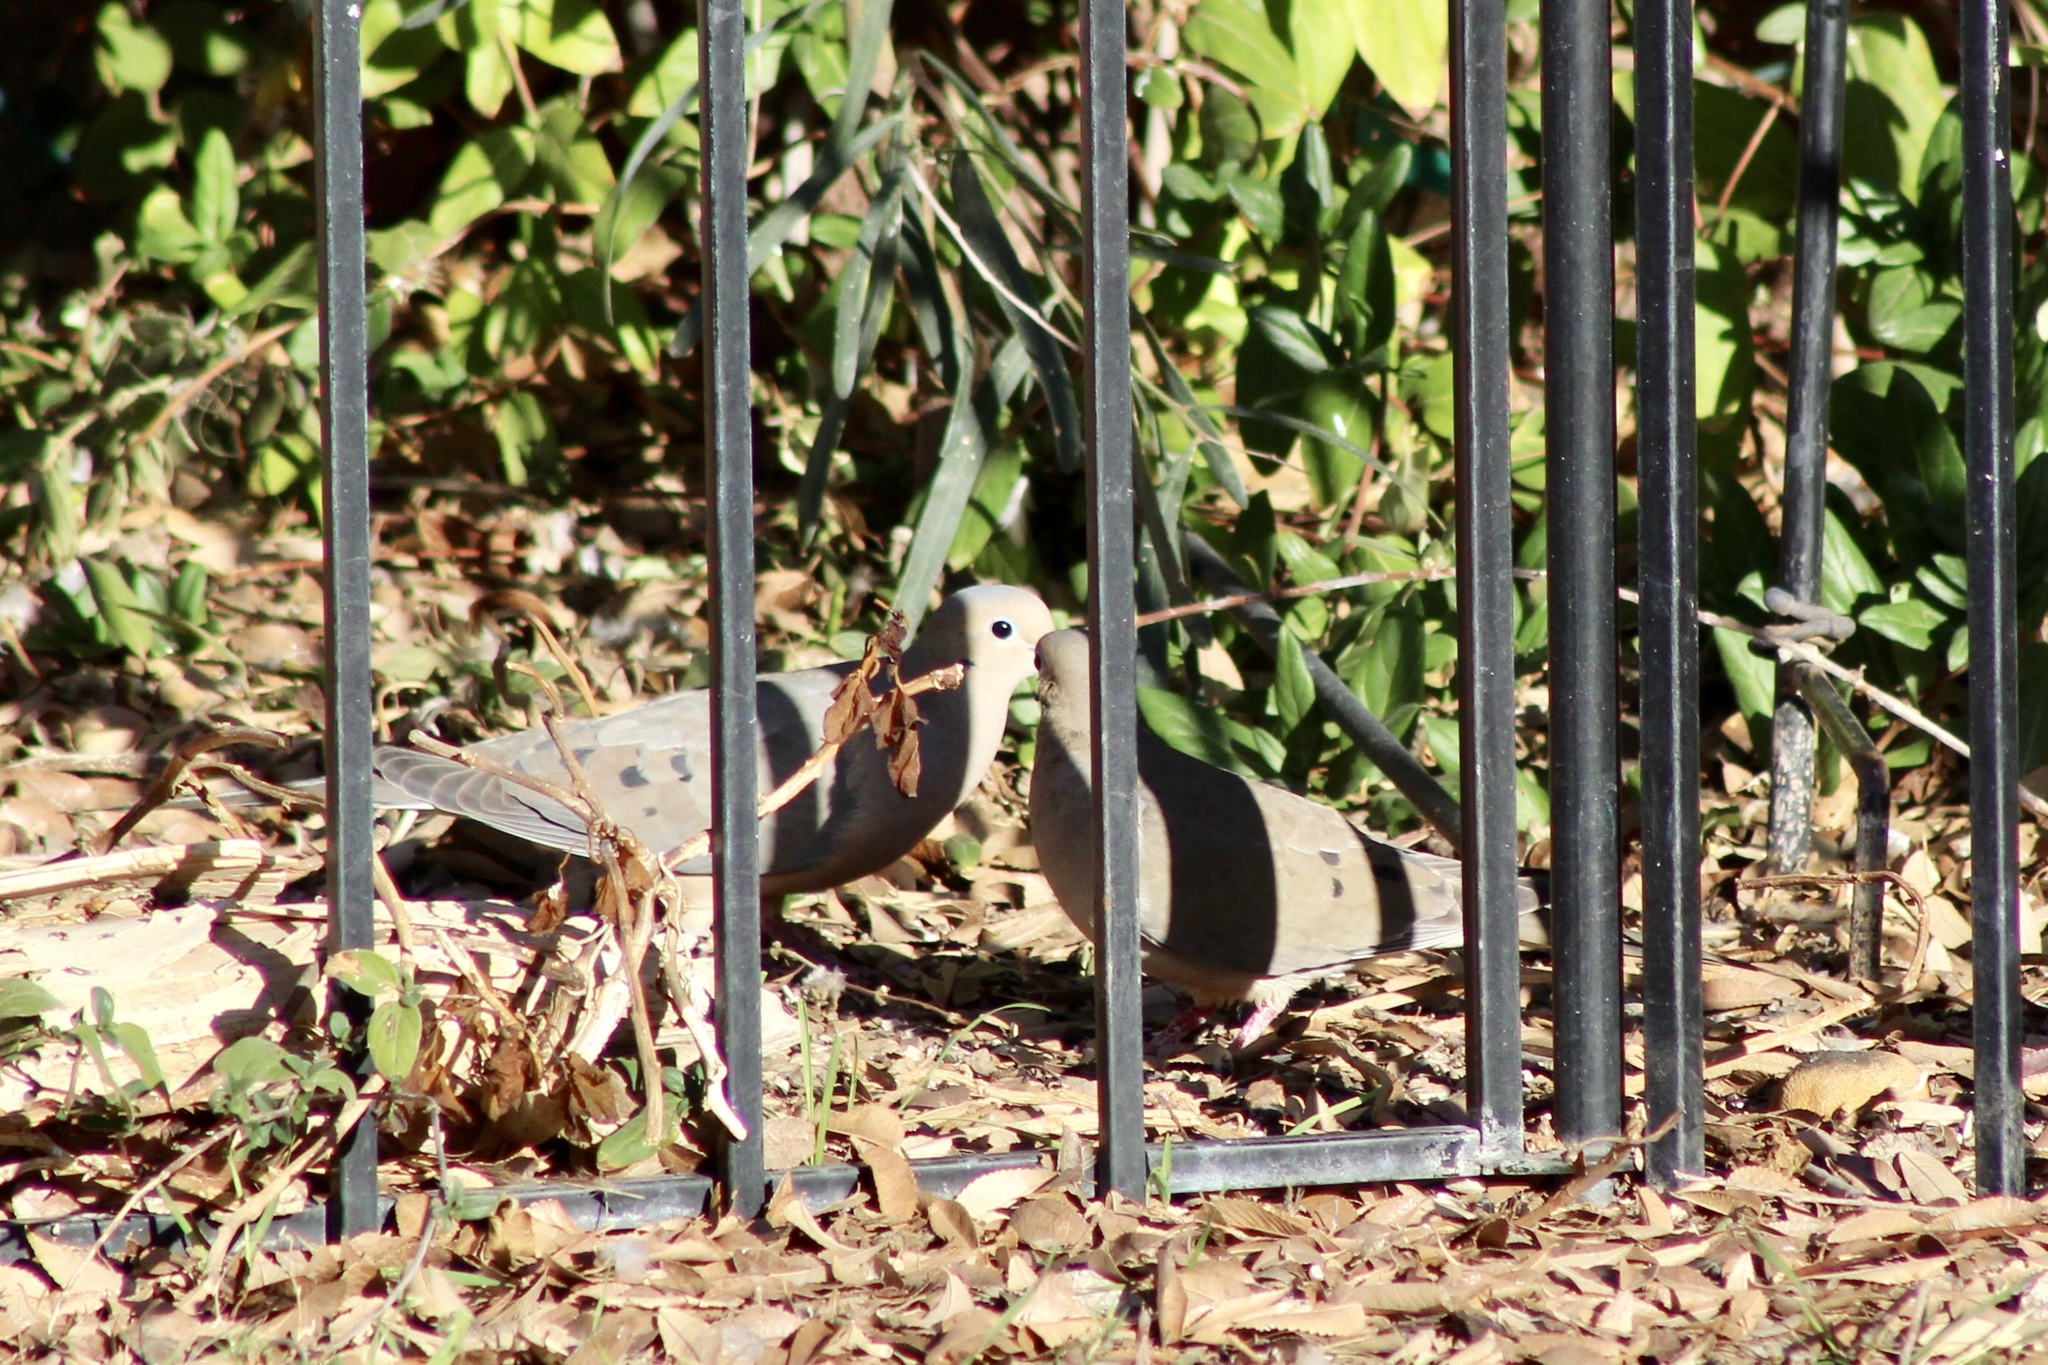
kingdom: Animalia
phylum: Chordata
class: Aves
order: Columbiformes
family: Columbidae
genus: Zenaida
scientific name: Zenaida macroura
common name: Mourning dove
